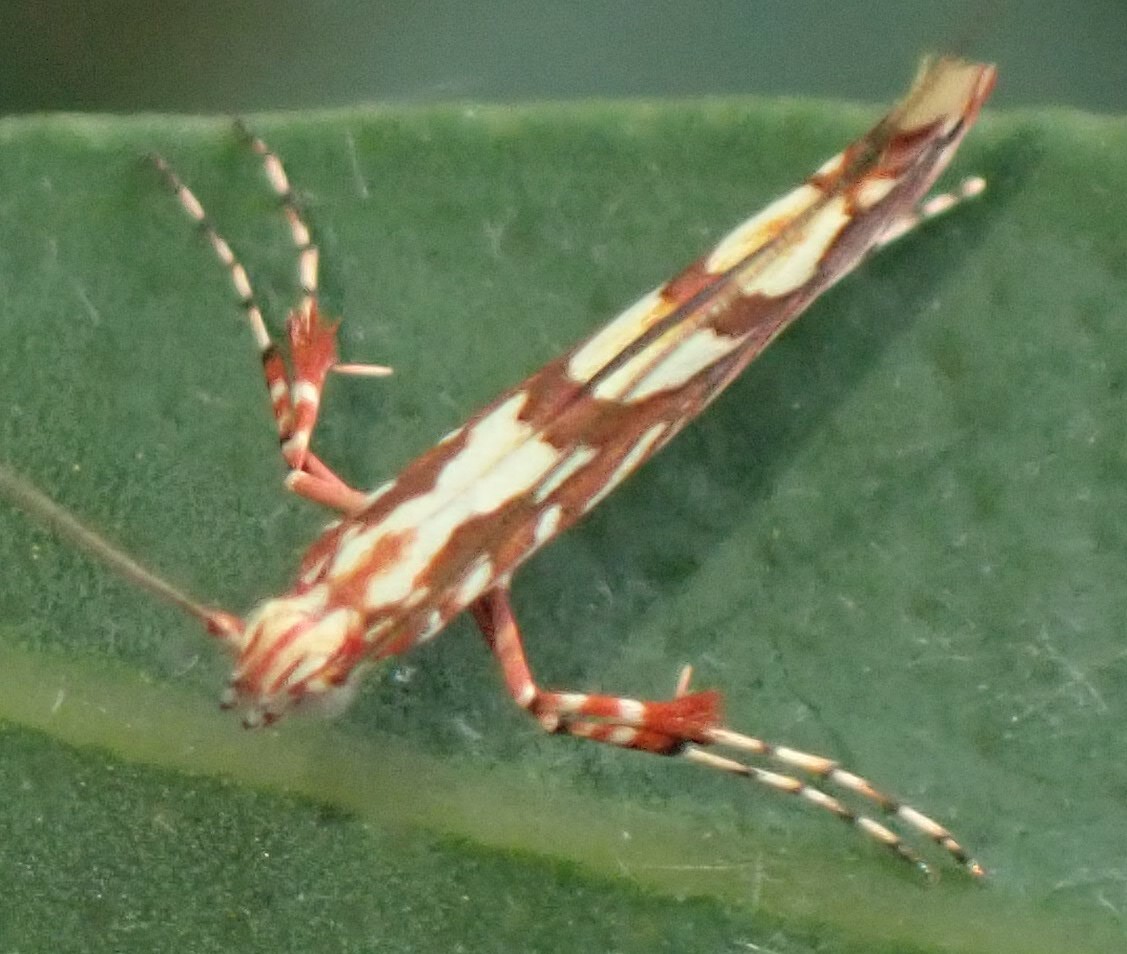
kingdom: Animalia
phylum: Arthropoda
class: Insecta
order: Lepidoptera
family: Gracillariidae
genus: Macarostola
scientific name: Macarostola ida
